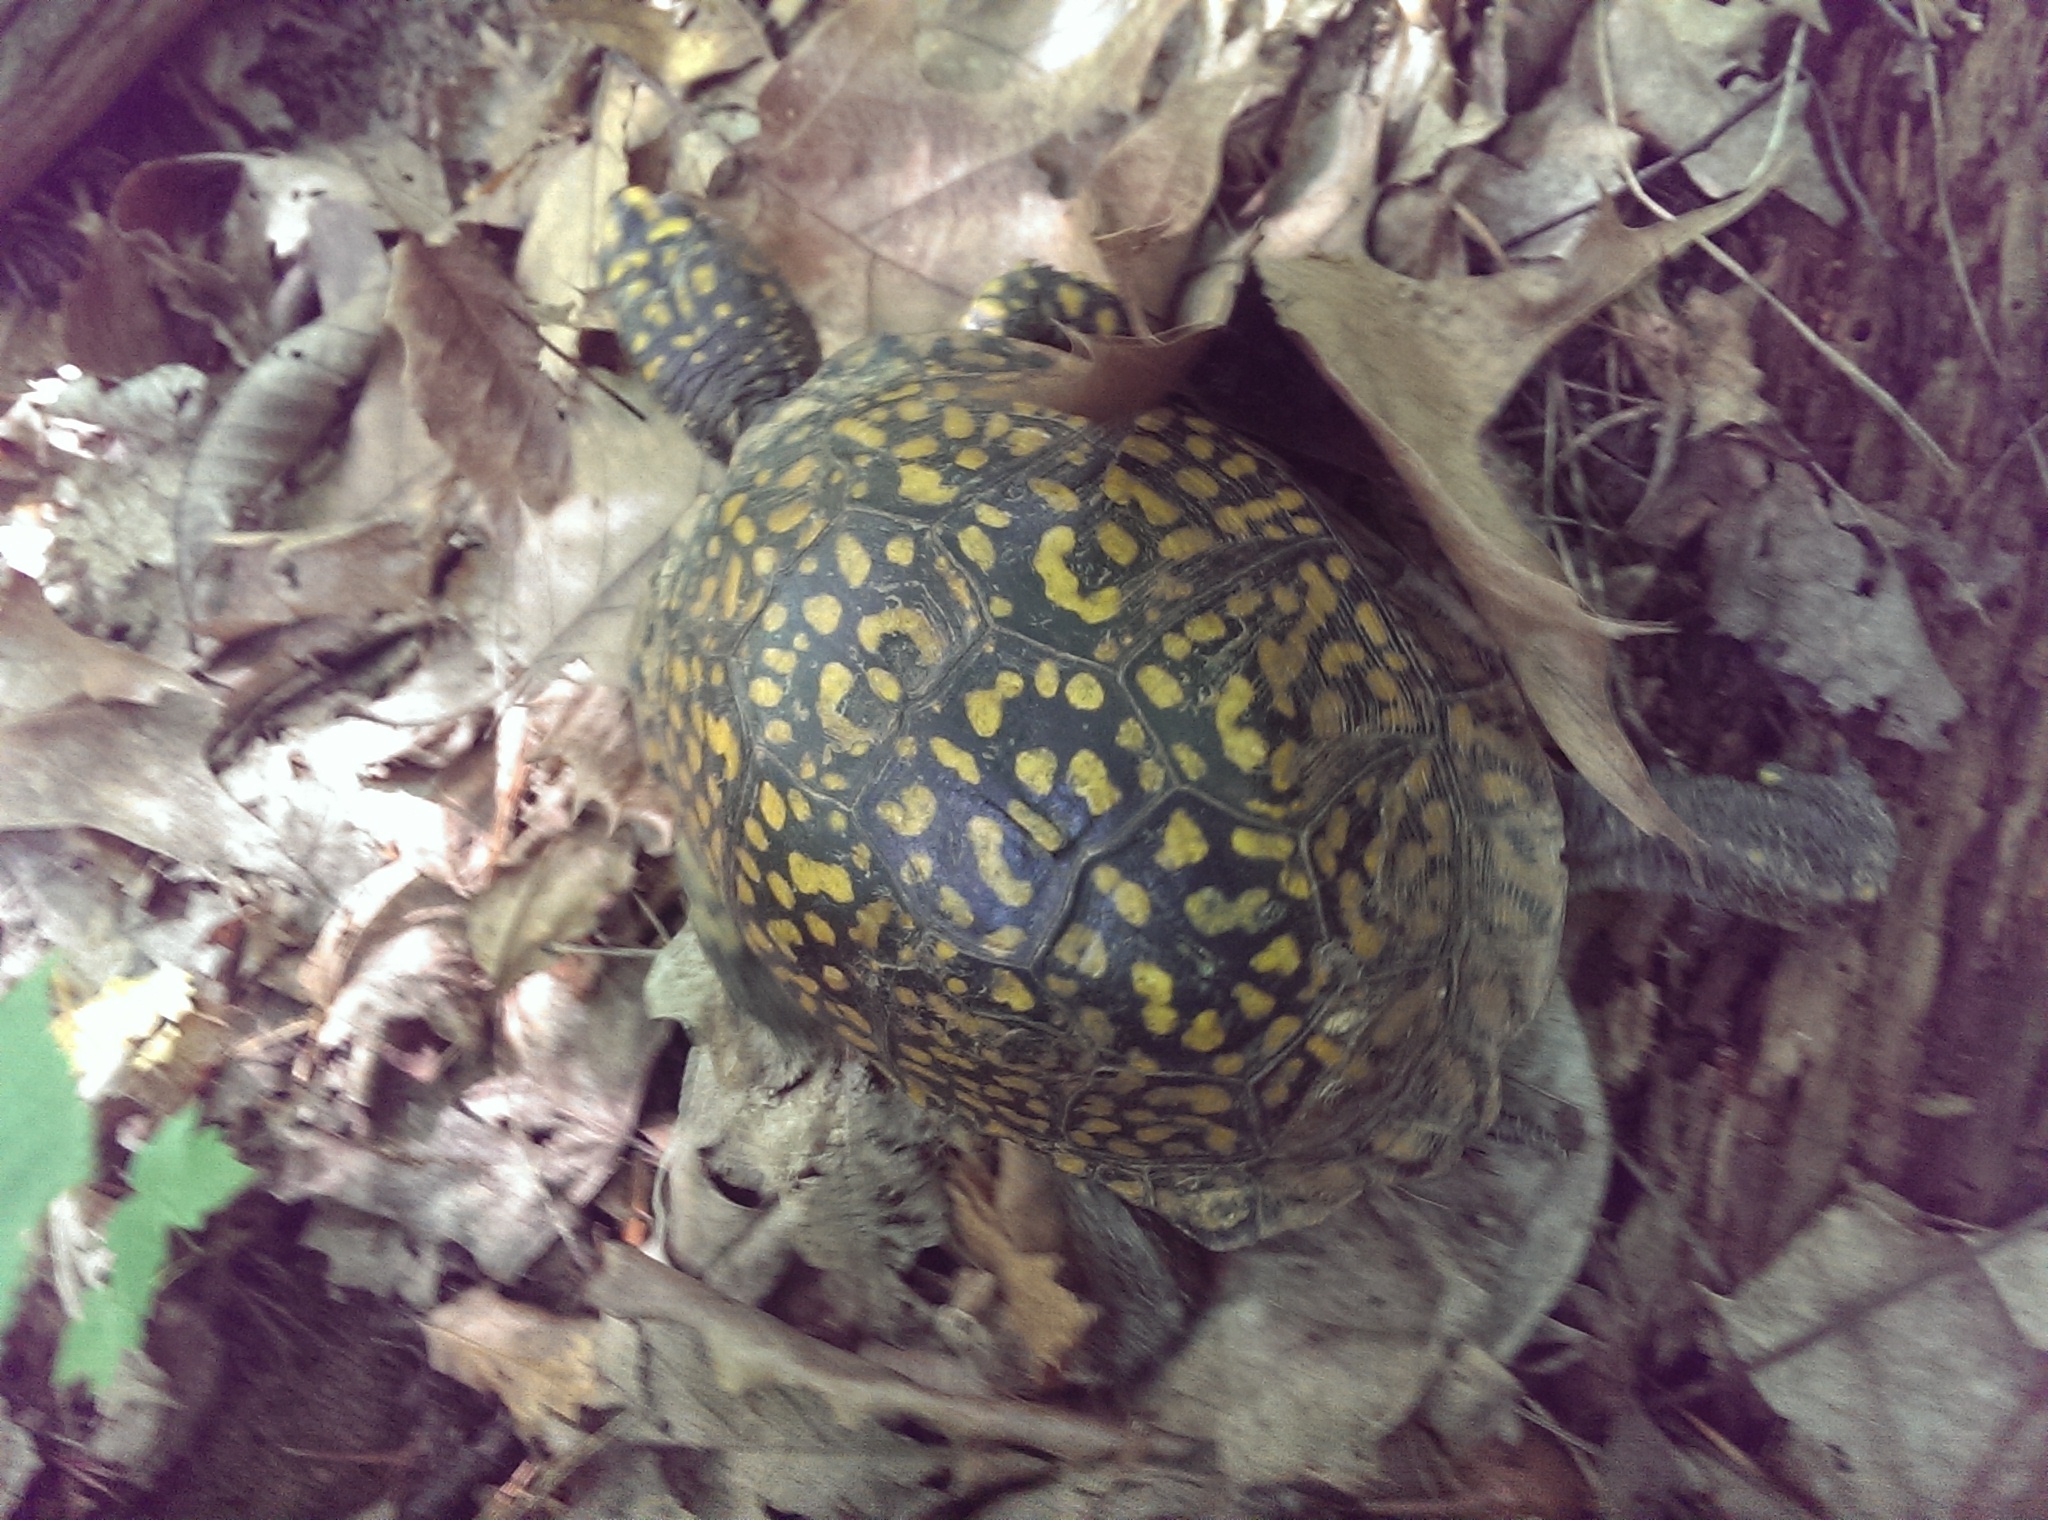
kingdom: Animalia
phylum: Chordata
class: Testudines
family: Emydidae
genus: Terrapene
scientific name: Terrapene carolina
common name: Common box turtle
